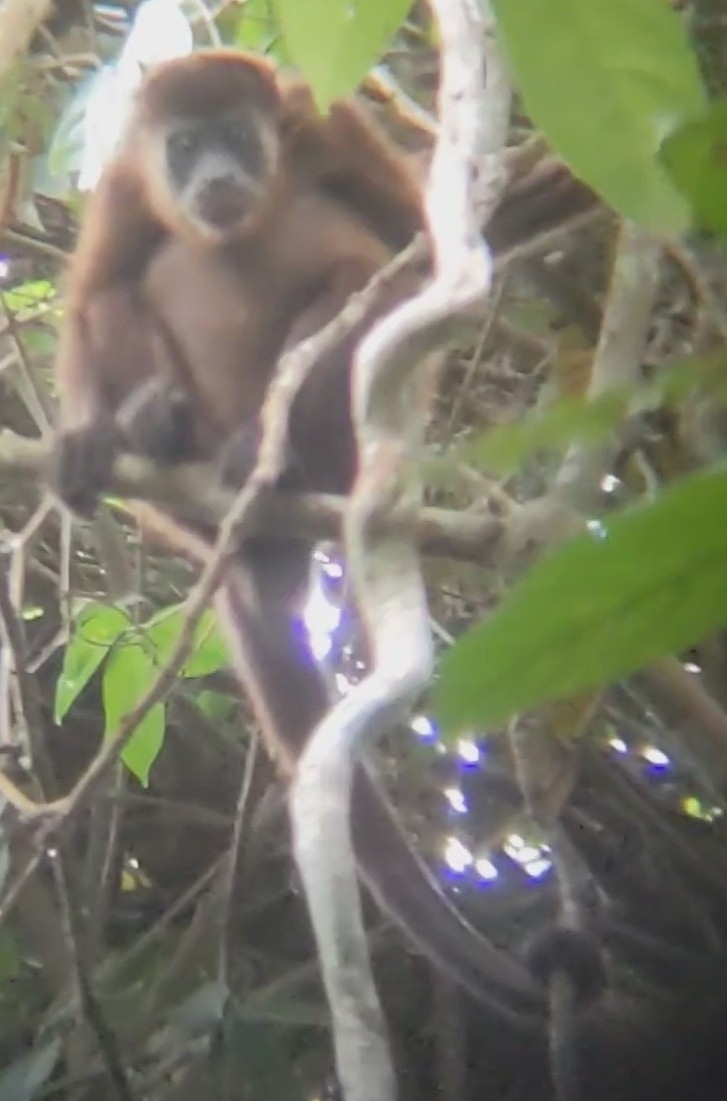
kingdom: Animalia
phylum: Chordata
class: Mammalia
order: Primates
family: Atelidae
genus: Alouatta
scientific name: Alouatta palliata
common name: Mantled howler
